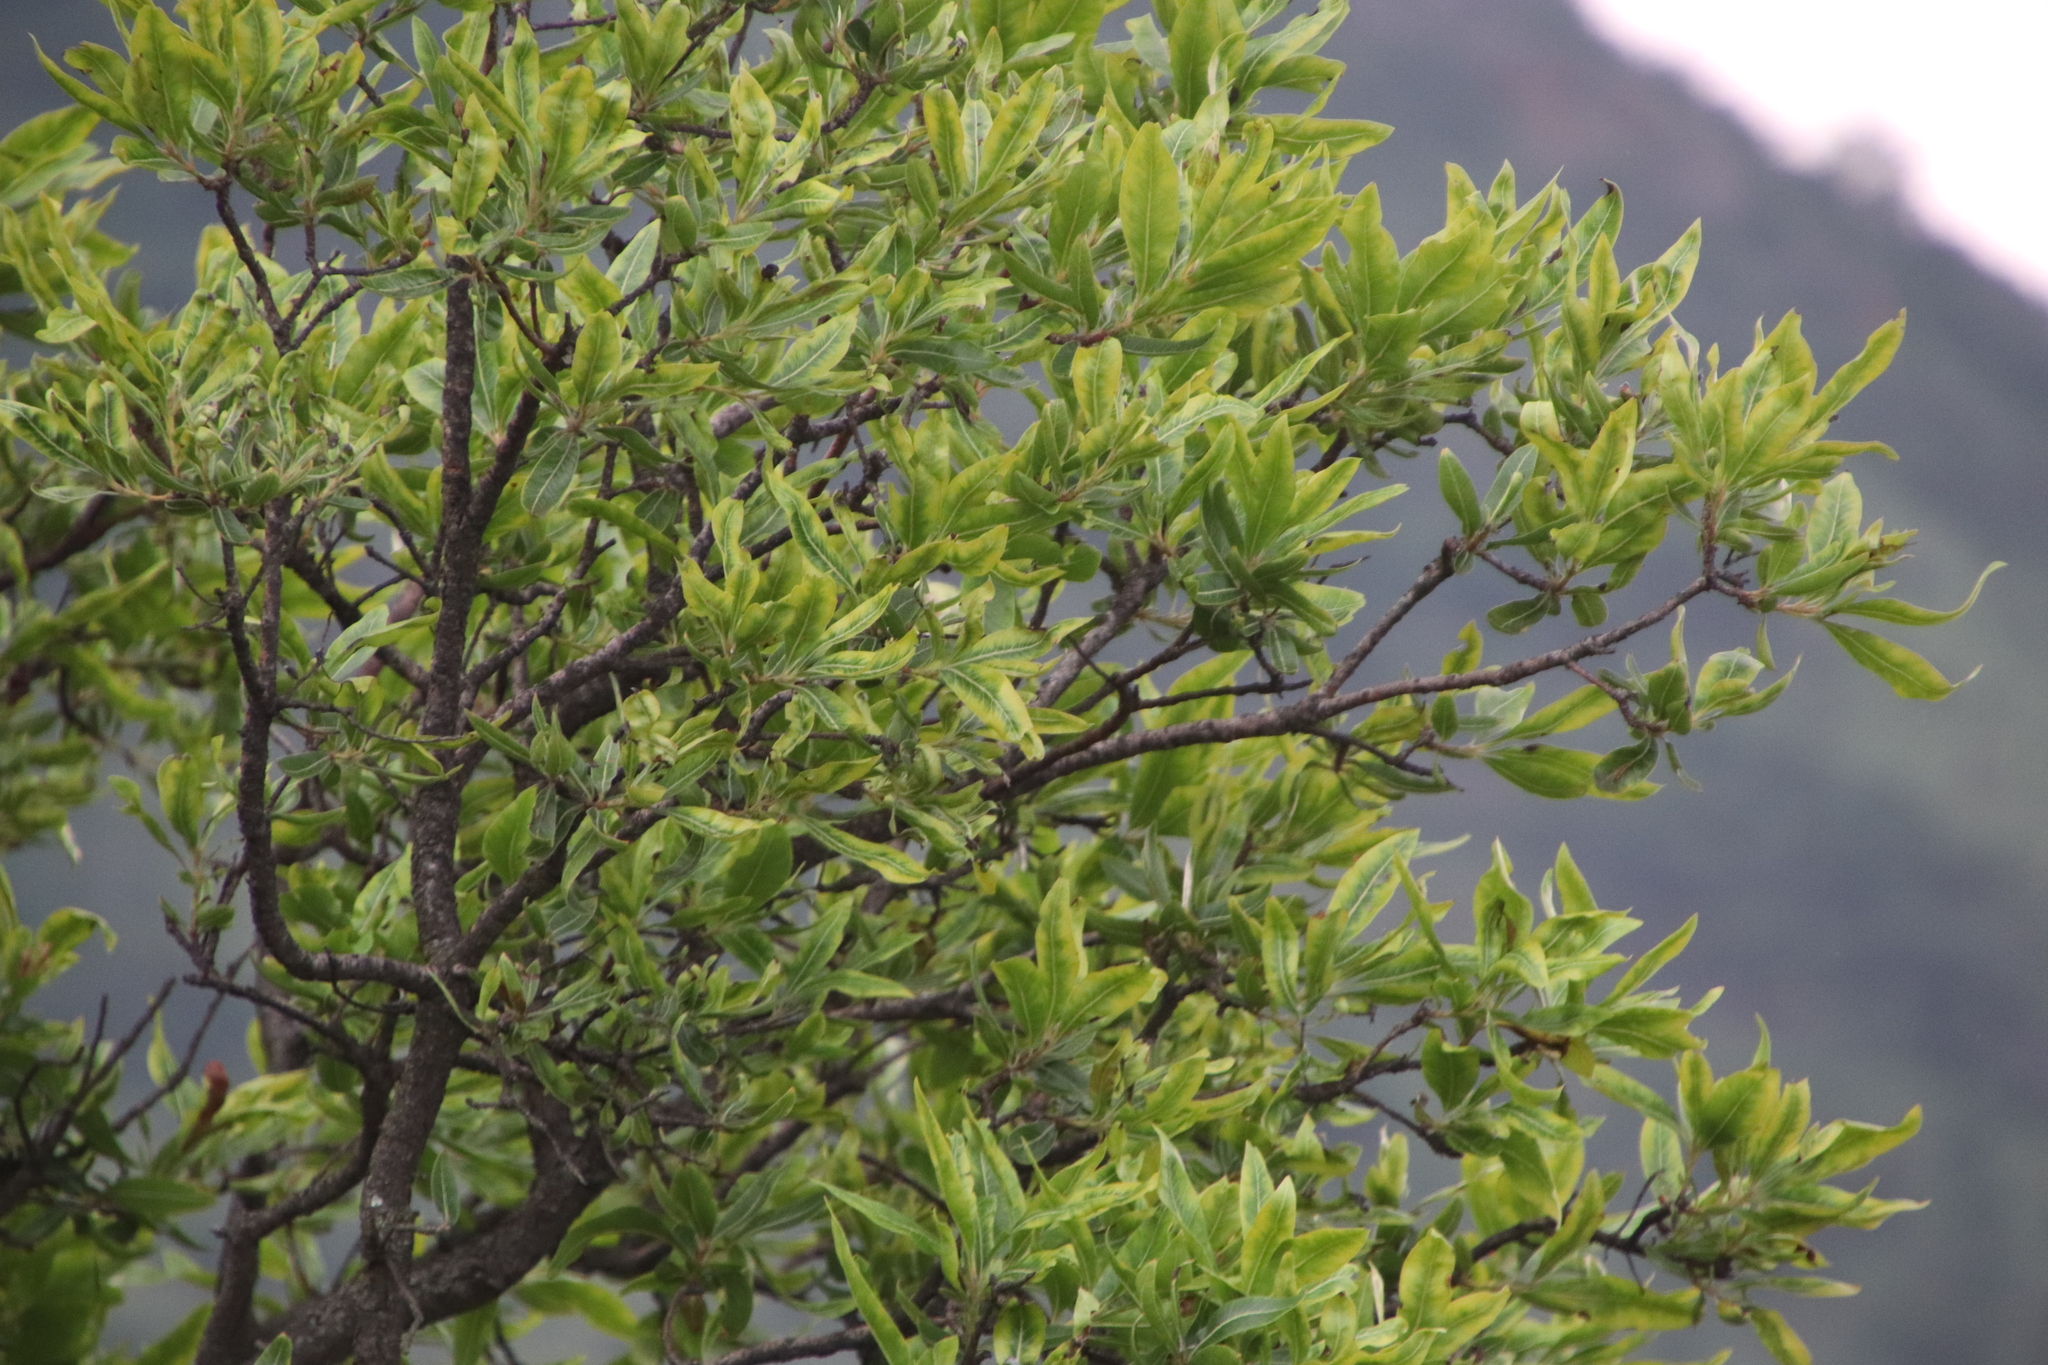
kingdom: Plantae
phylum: Tracheophyta
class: Magnoliopsida
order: Proteales
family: Proteaceae
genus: Faurea
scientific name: Faurea rochetiana
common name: Broad-leaved beech
